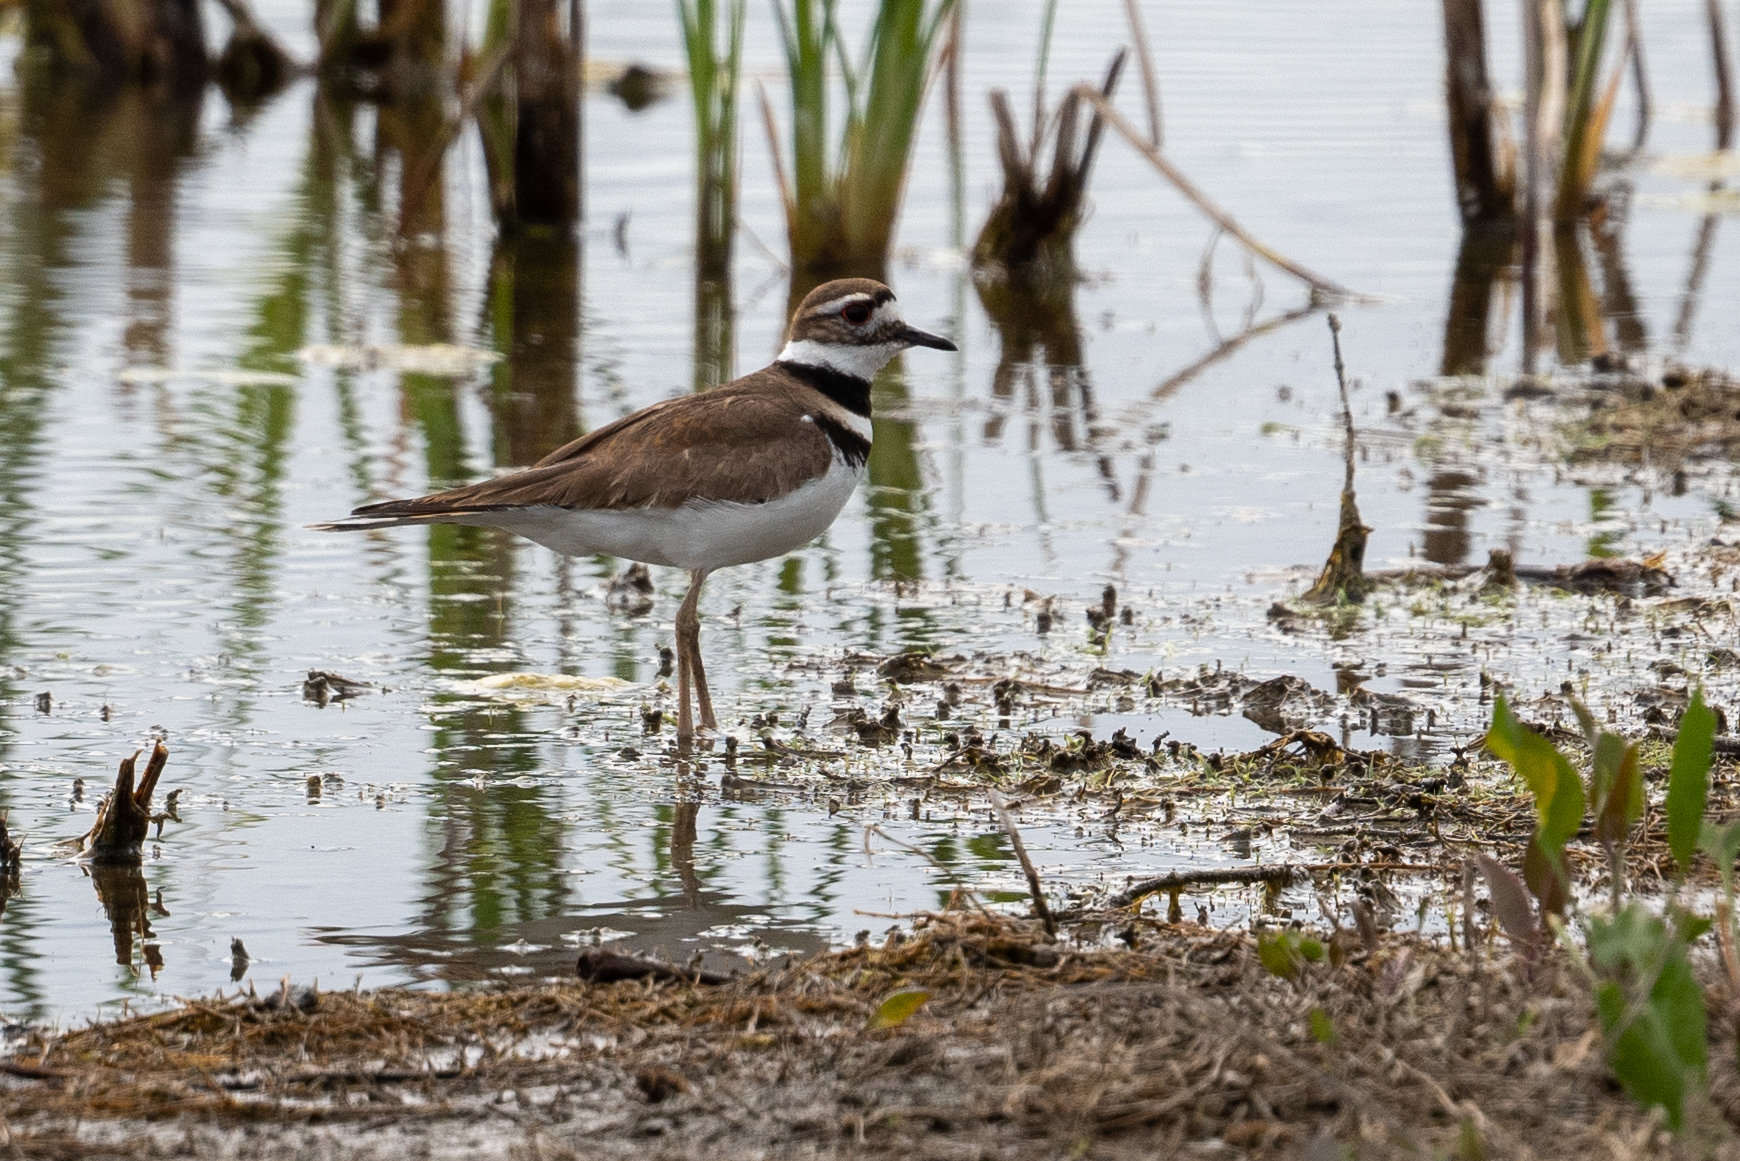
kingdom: Animalia
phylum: Chordata
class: Aves
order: Charadriiformes
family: Charadriidae
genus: Charadrius
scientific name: Charadrius vociferus
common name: Killdeer
